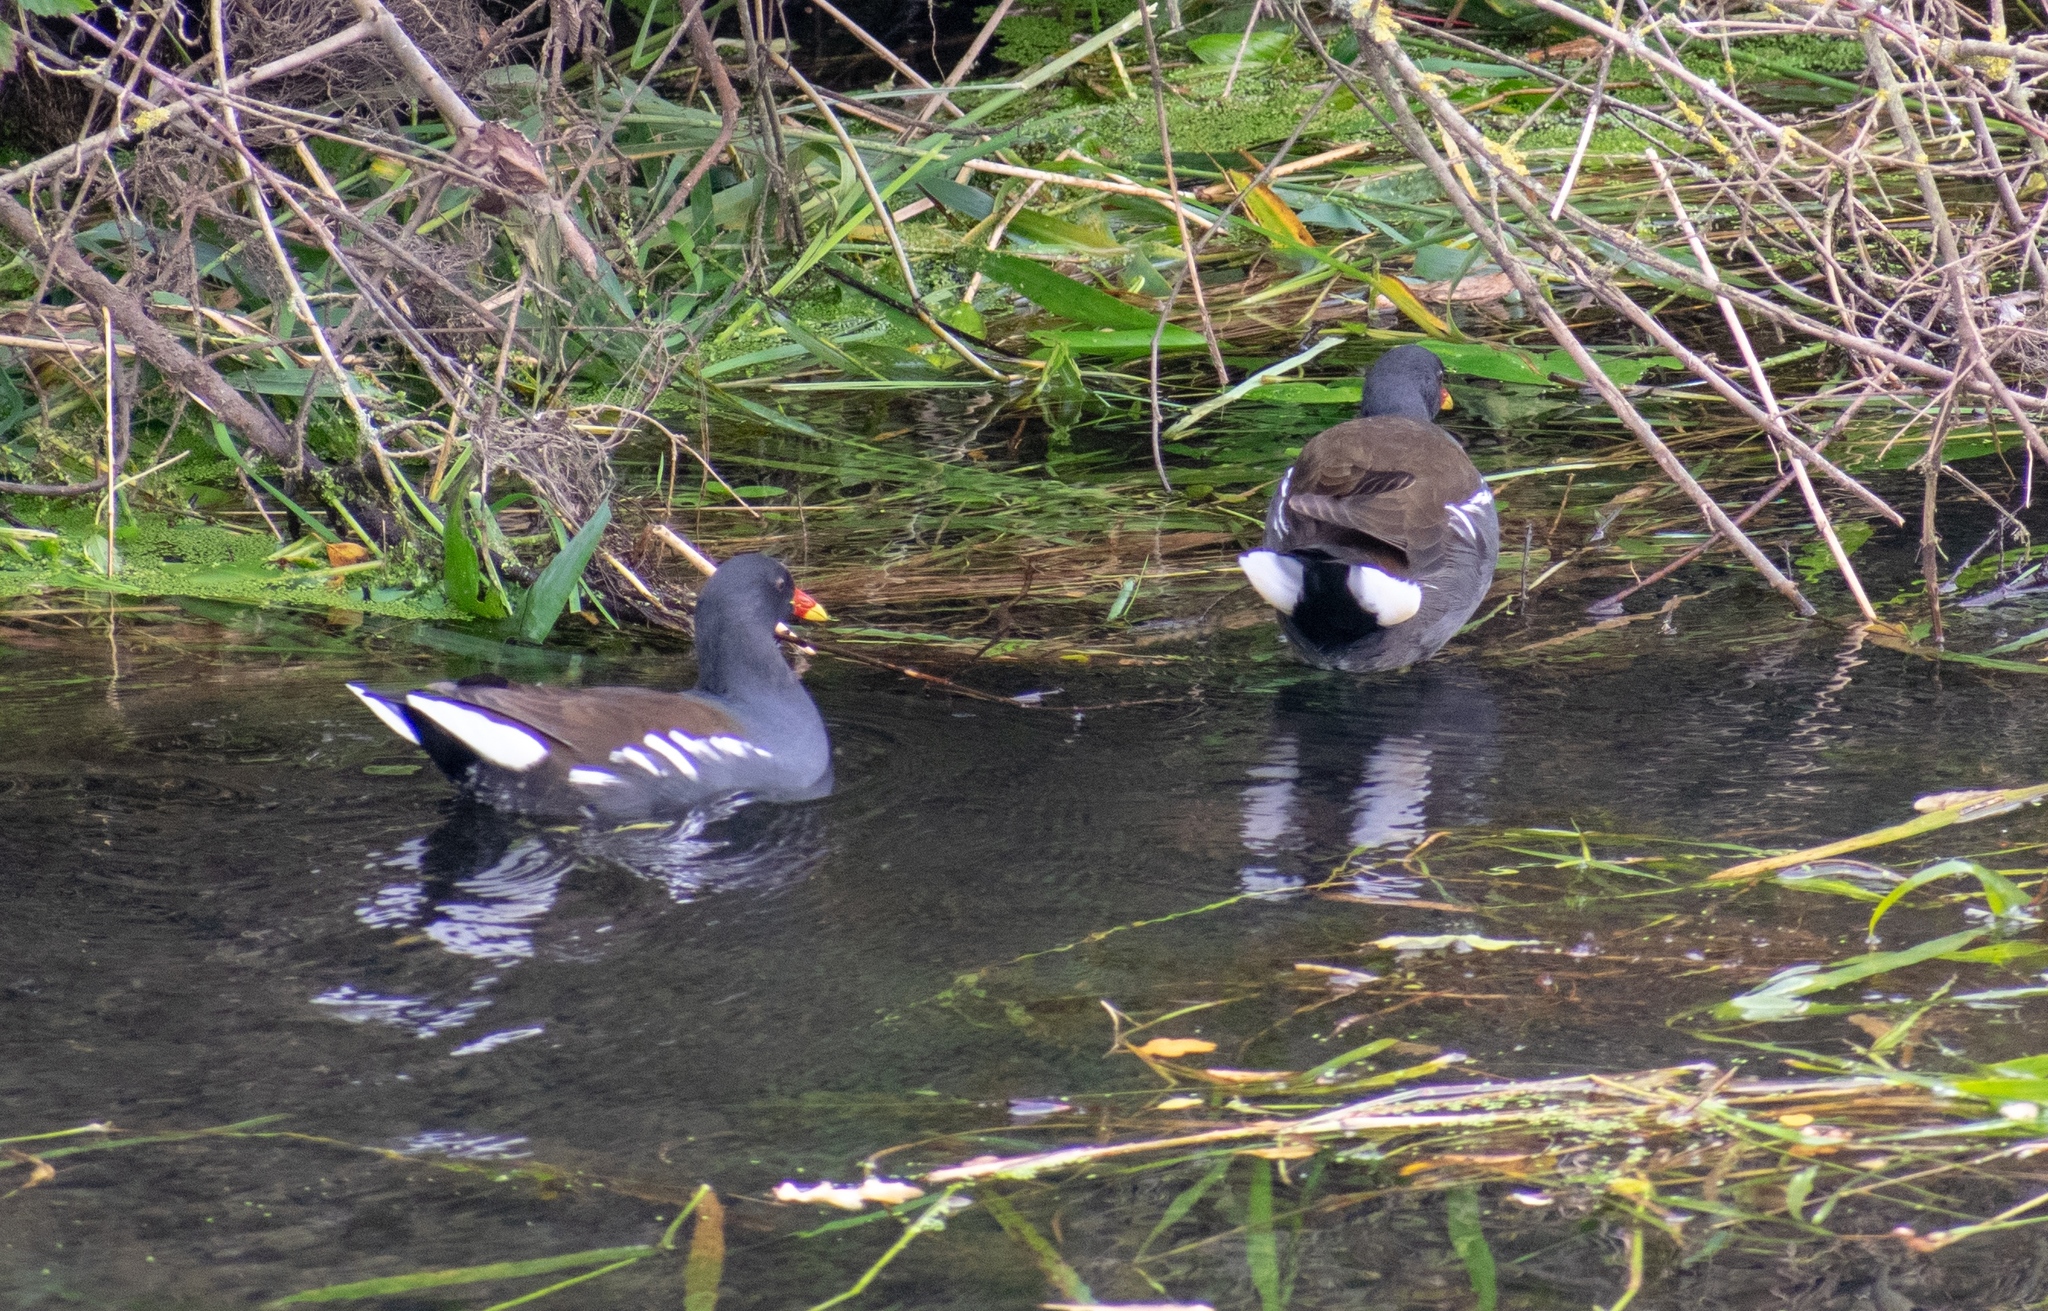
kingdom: Animalia
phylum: Chordata
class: Aves
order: Gruiformes
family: Rallidae
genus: Gallinula
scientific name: Gallinula chloropus
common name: Common moorhen
